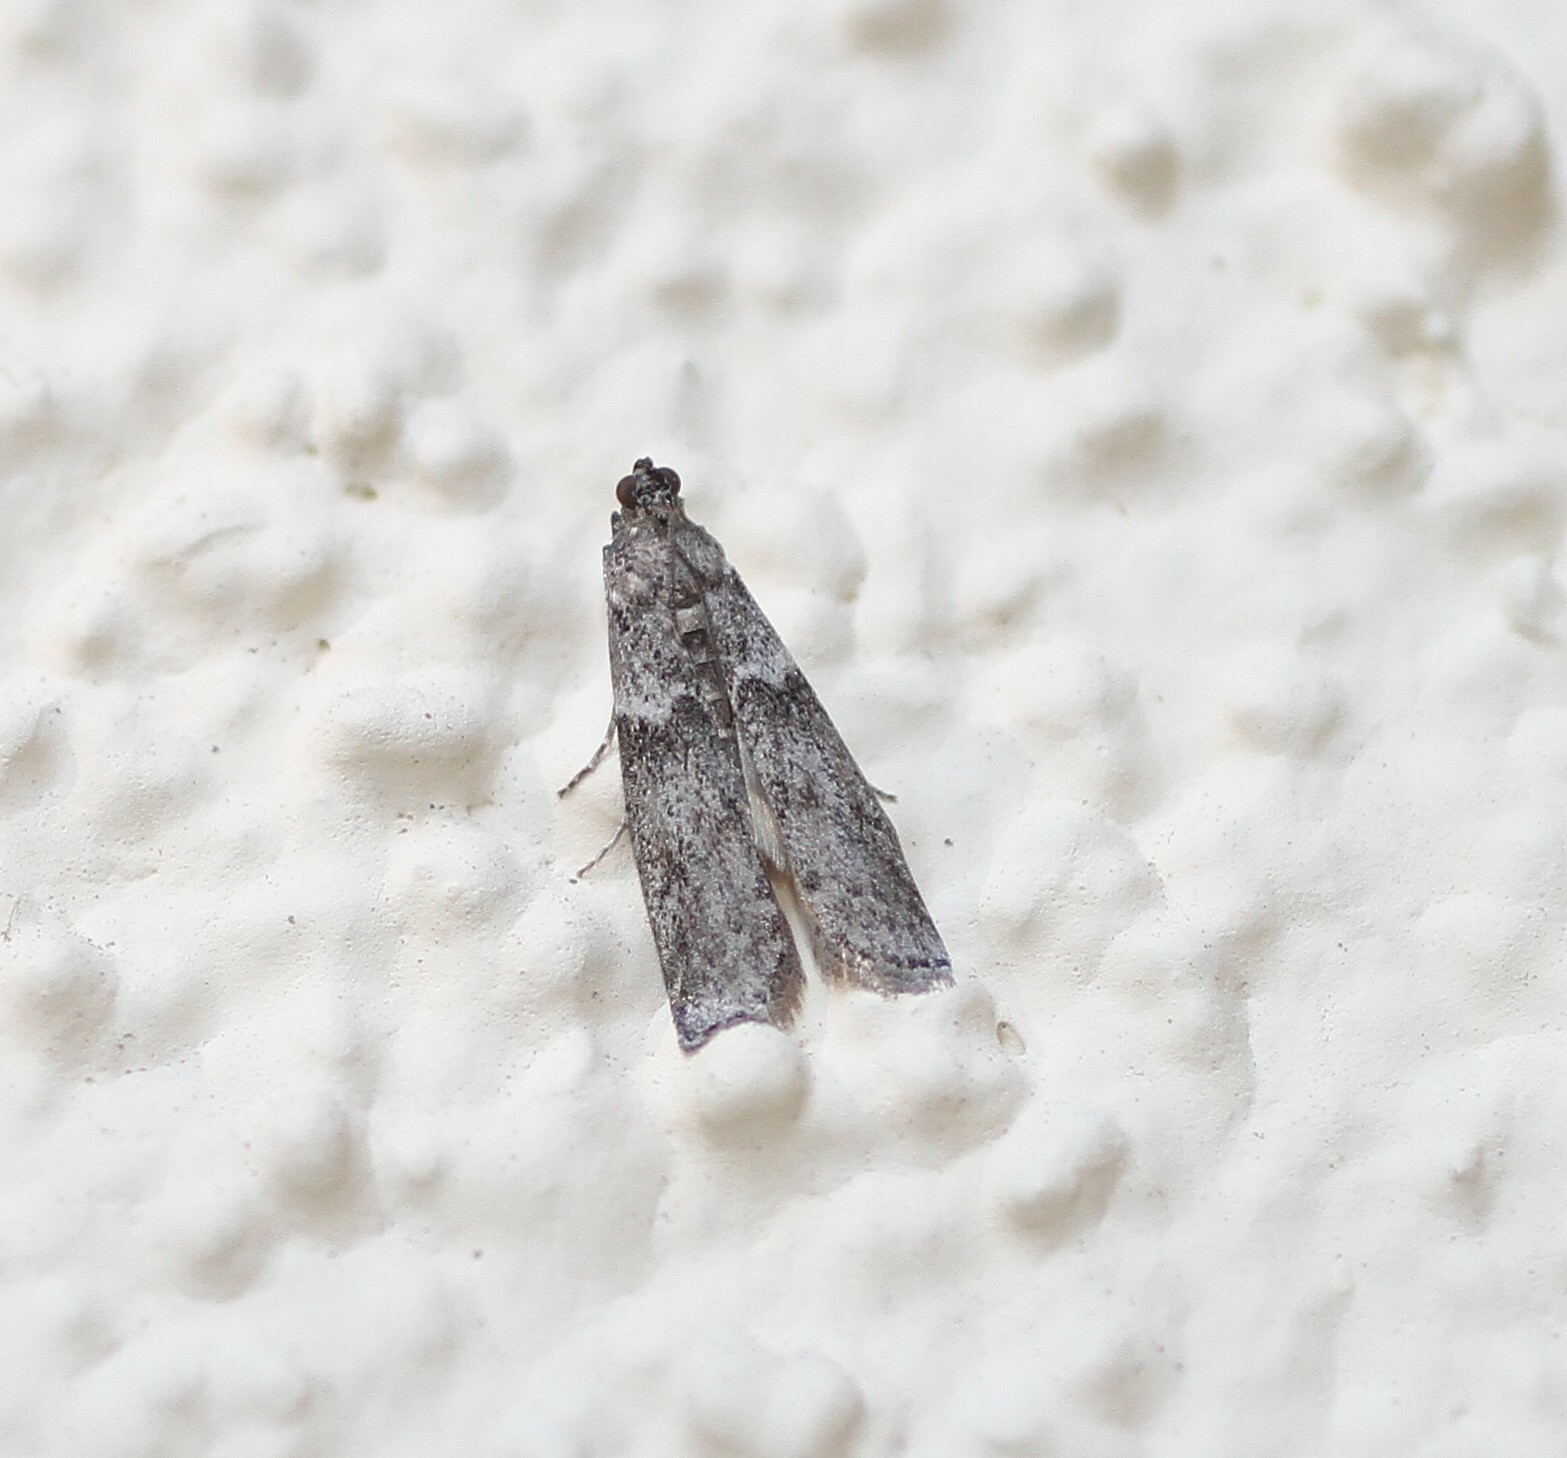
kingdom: Animalia
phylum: Arthropoda
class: Insecta
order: Lepidoptera
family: Pyralidae
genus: Ephestiodes
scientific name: Ephestiodes gilvescentella
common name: Moth
